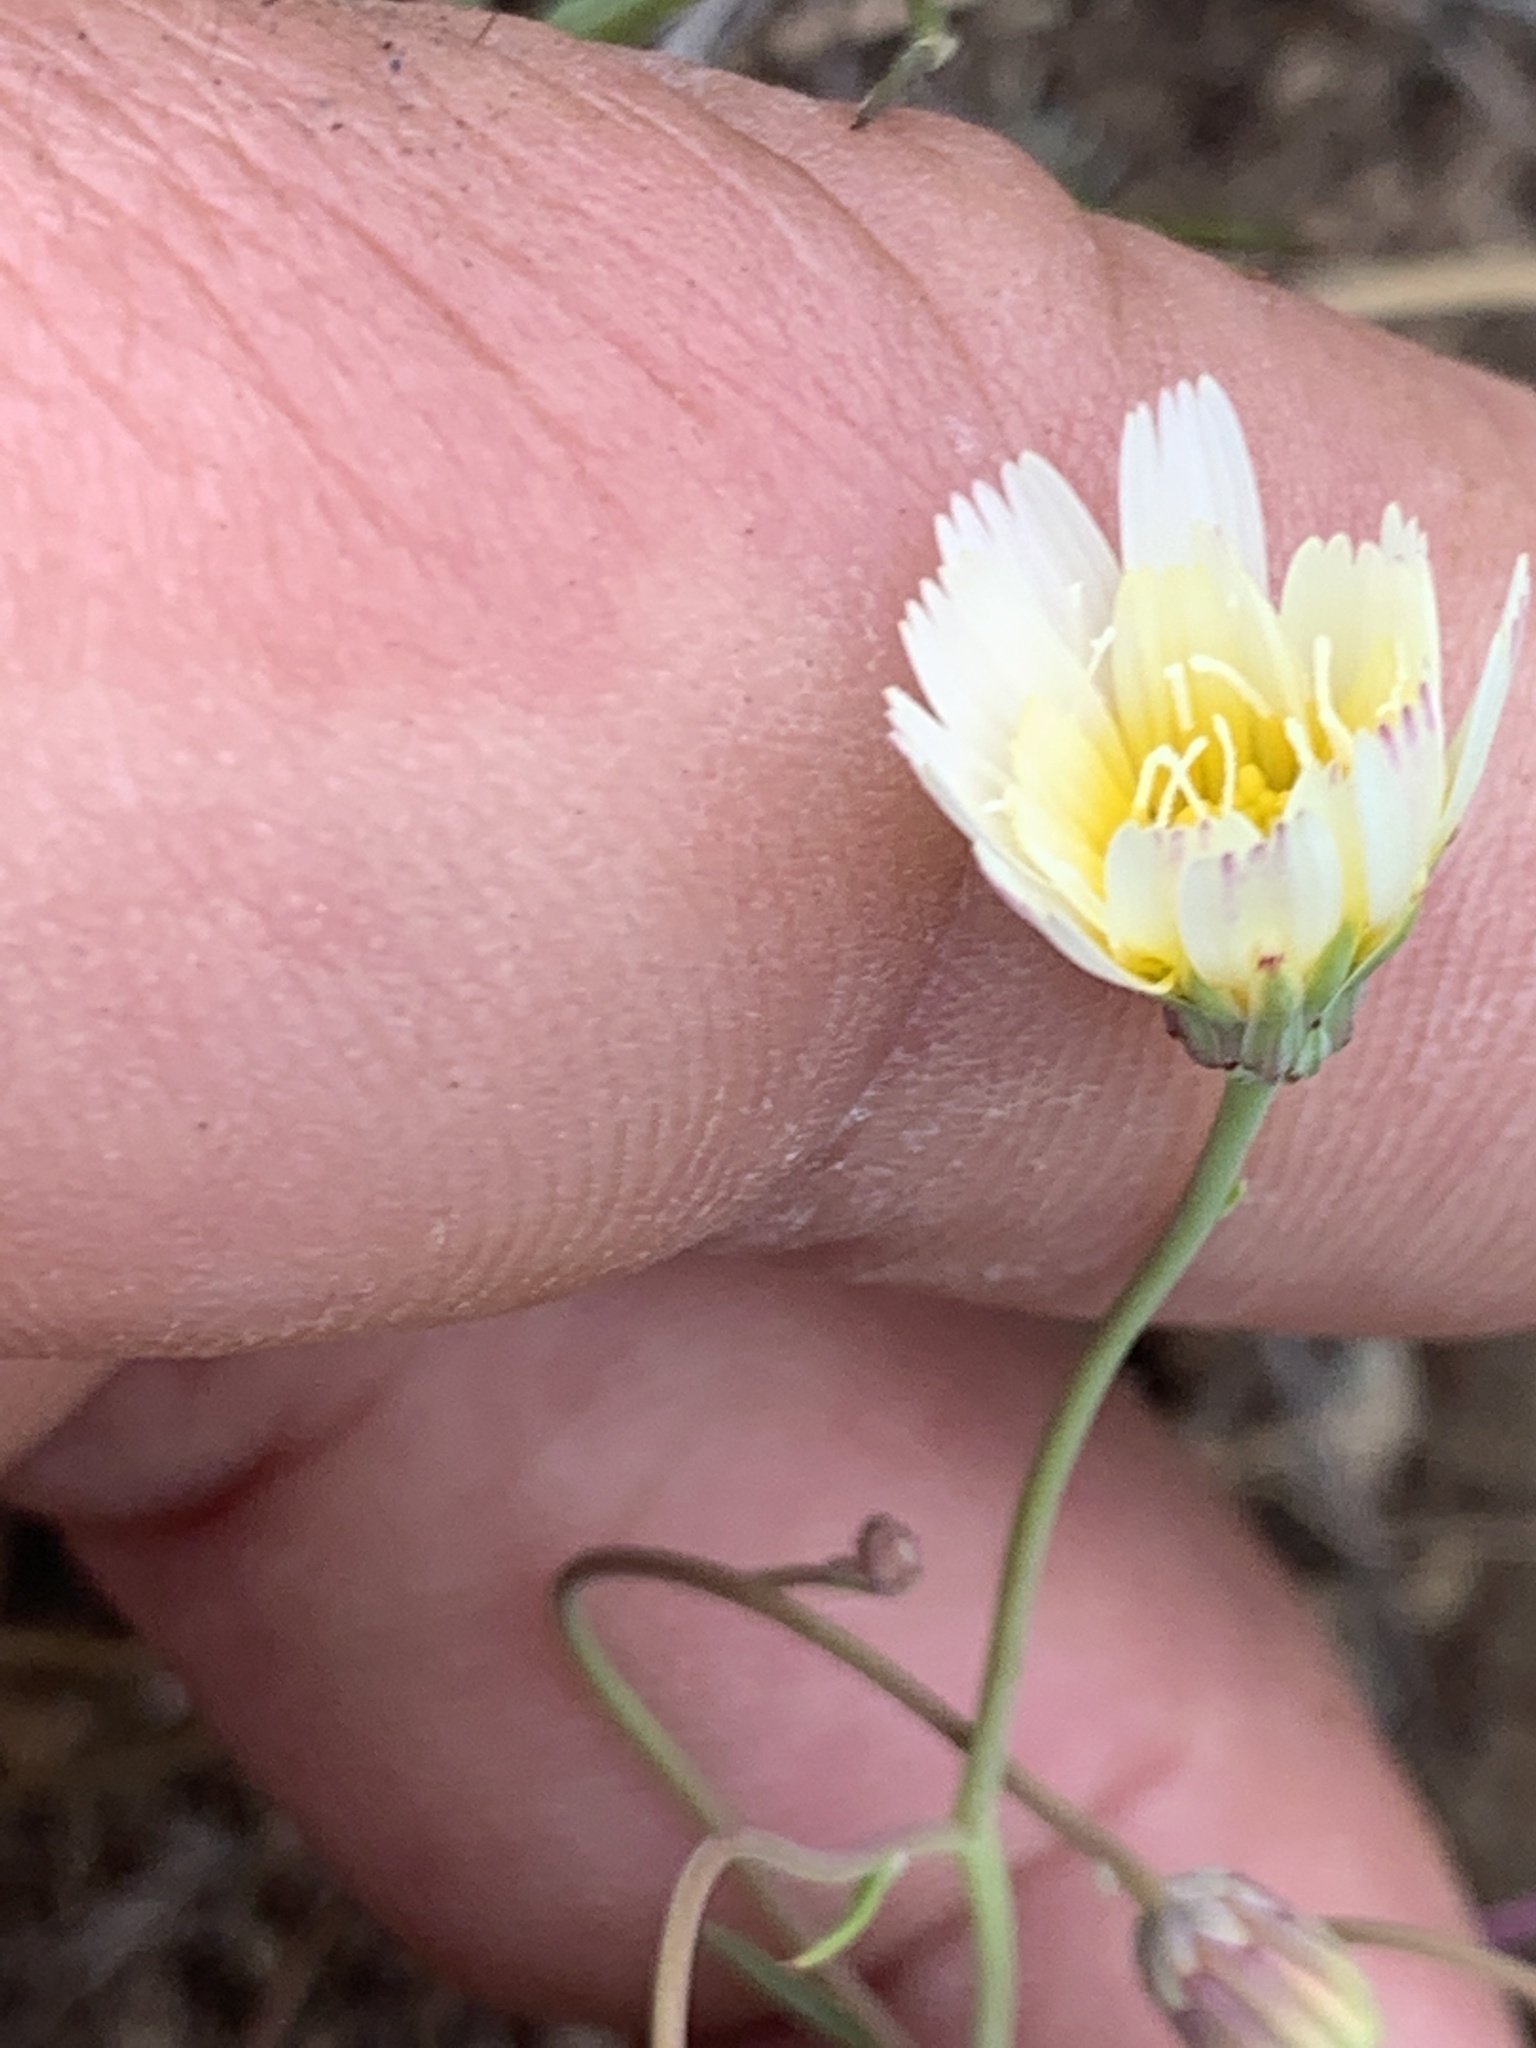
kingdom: Plantae
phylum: Tracheophyta
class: Magnoliopsida
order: Asterales
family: Asteraceae
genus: Malacothrix
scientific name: Malacothrix floccifera
